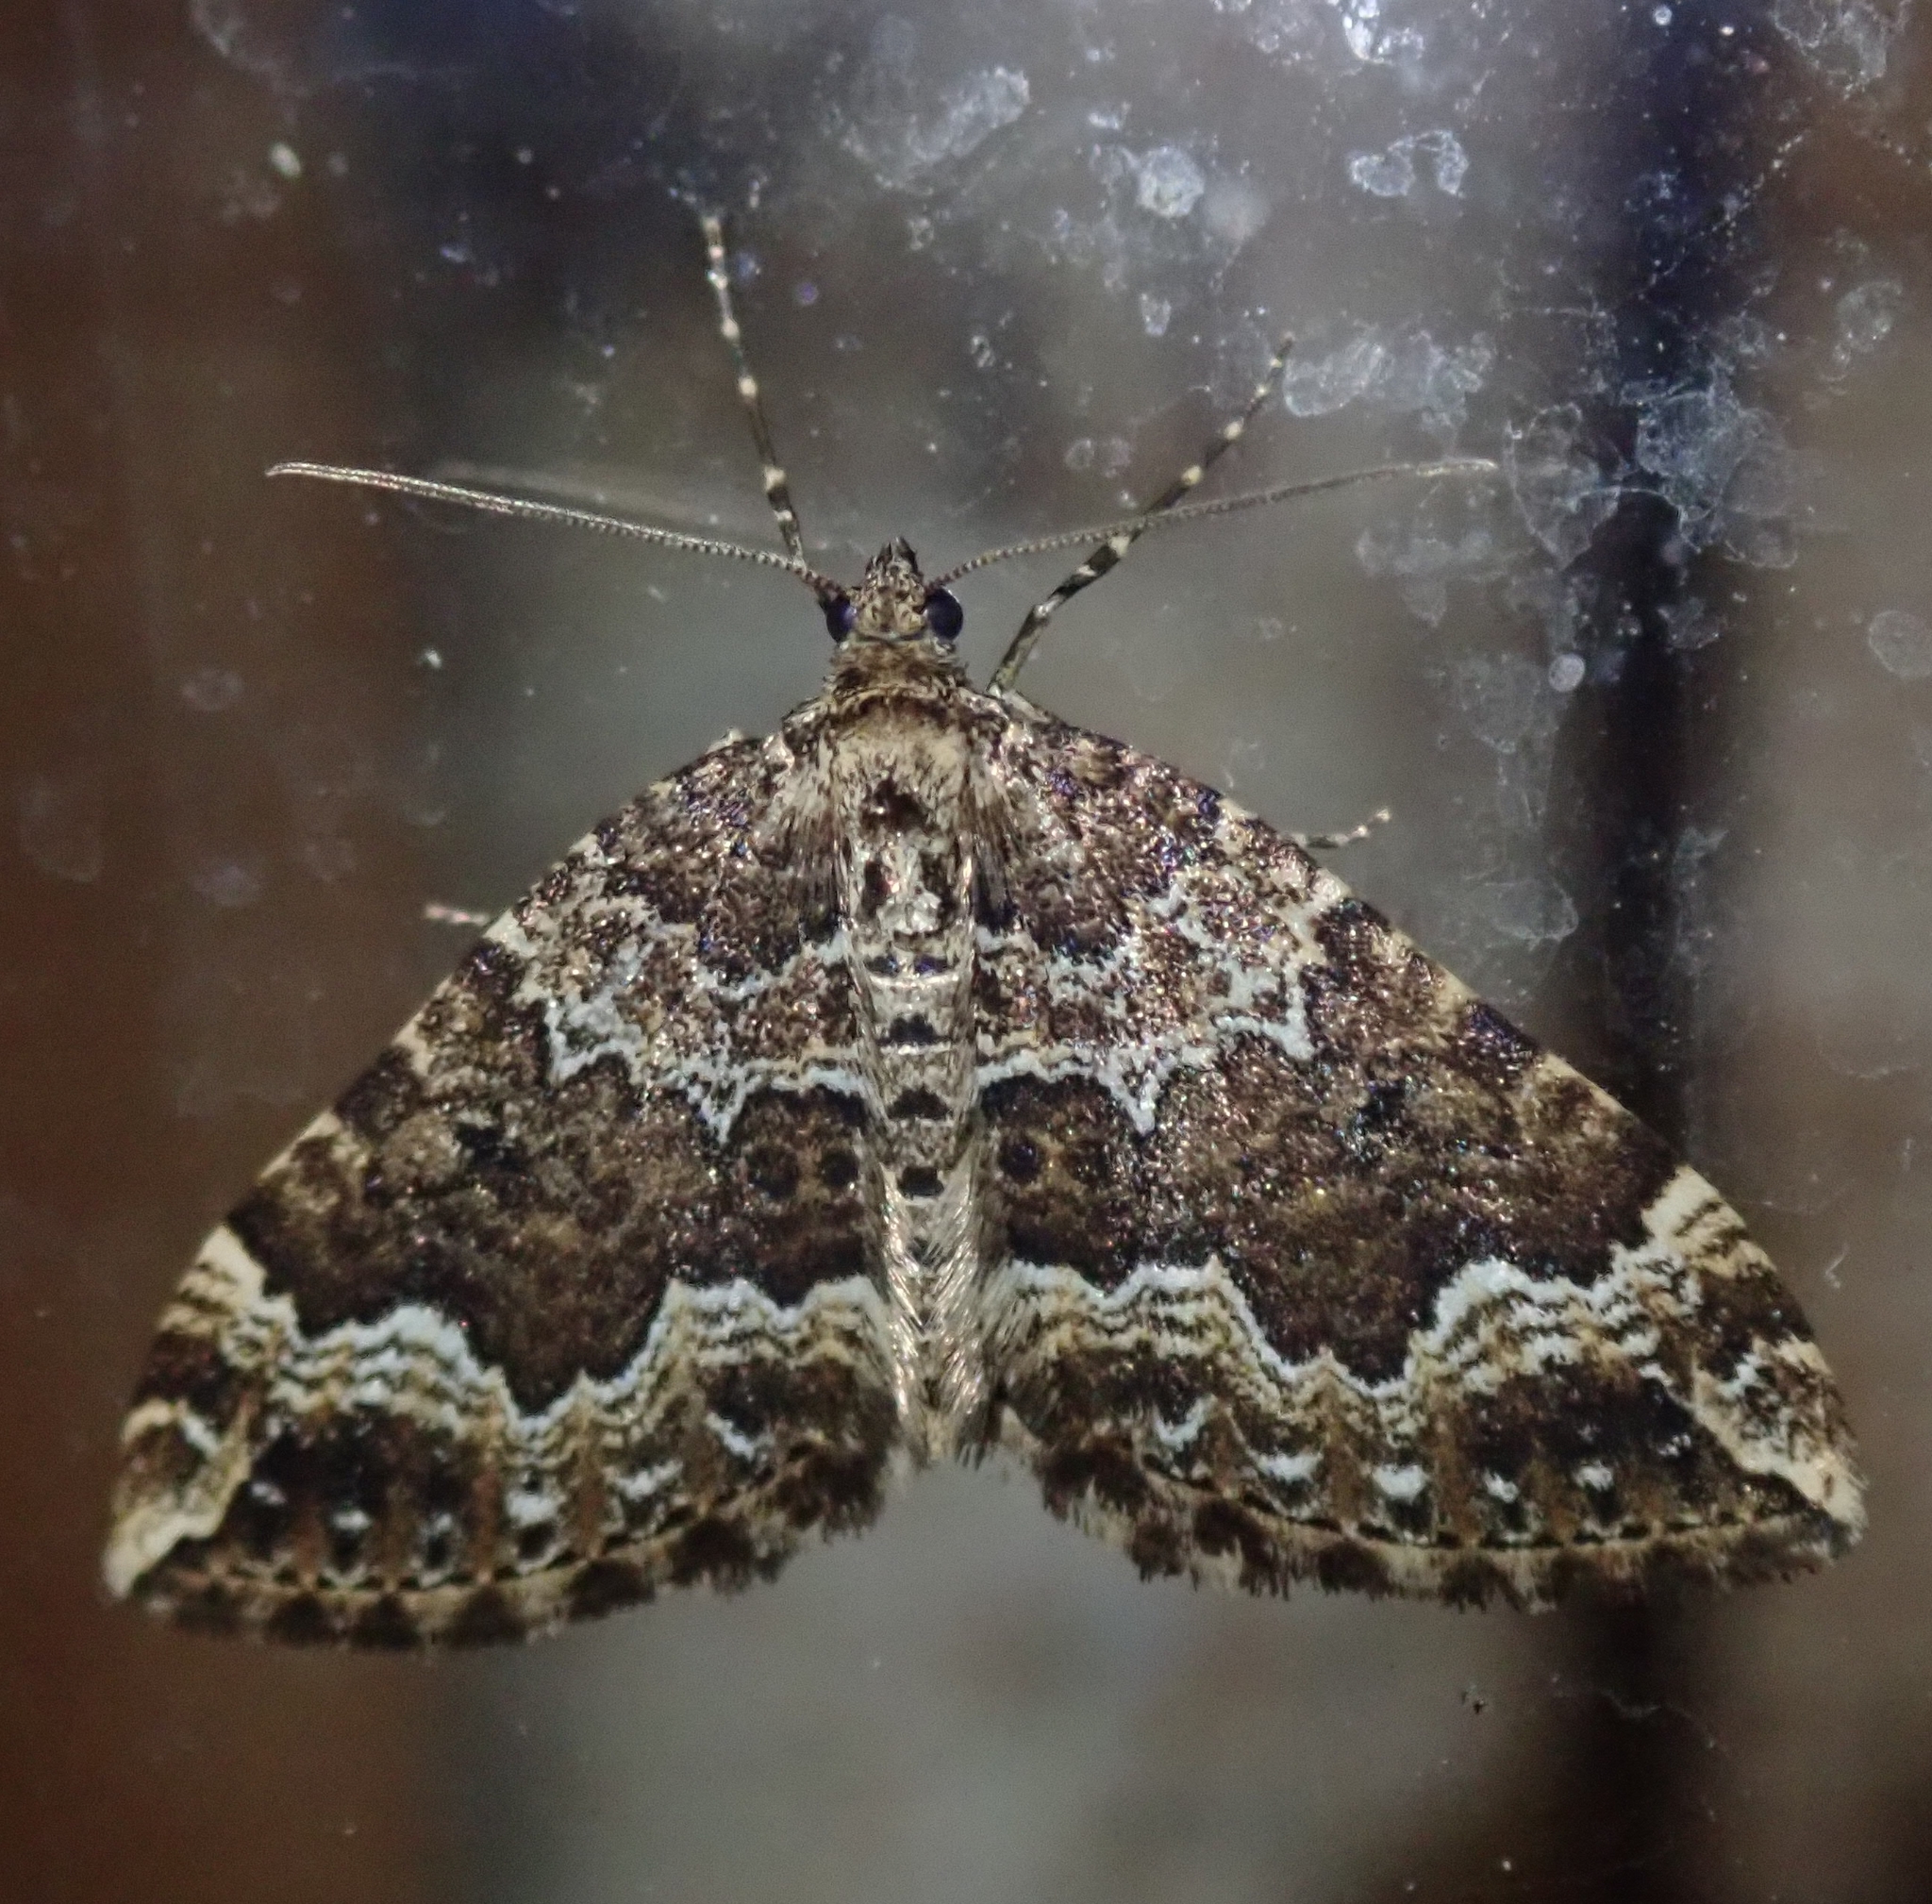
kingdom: Animalia
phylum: Arthropoda
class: Insecta
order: Lepidoptera
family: Geometridae
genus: Lampropteryx
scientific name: Lampropteryx suffumata
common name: Water carpet
